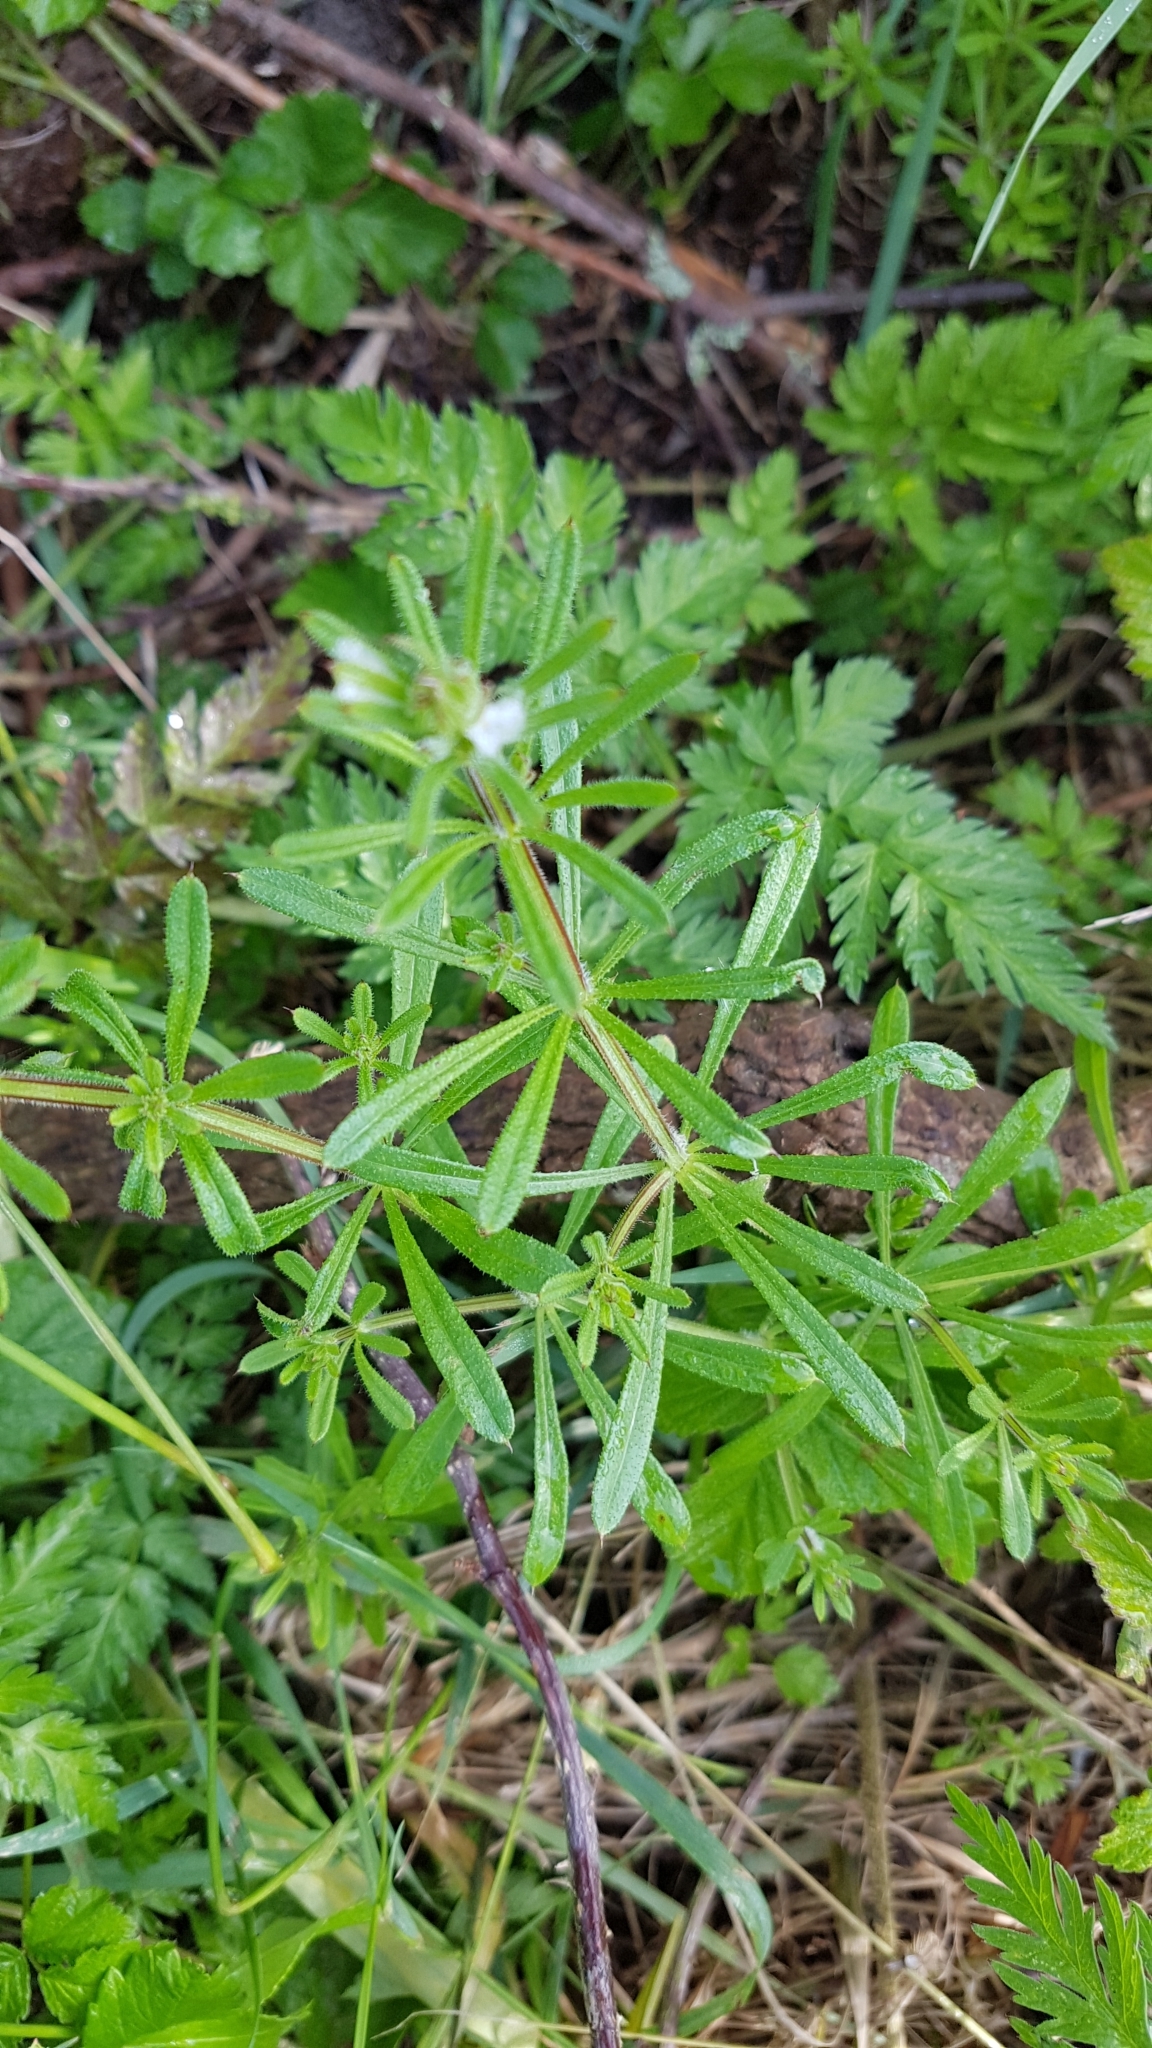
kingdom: Plantae
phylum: Tracheophyta
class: Magnoliopsida
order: Gentianales
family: Rubiaceae
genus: Galium
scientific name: Galium aparine
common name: Cleavers
